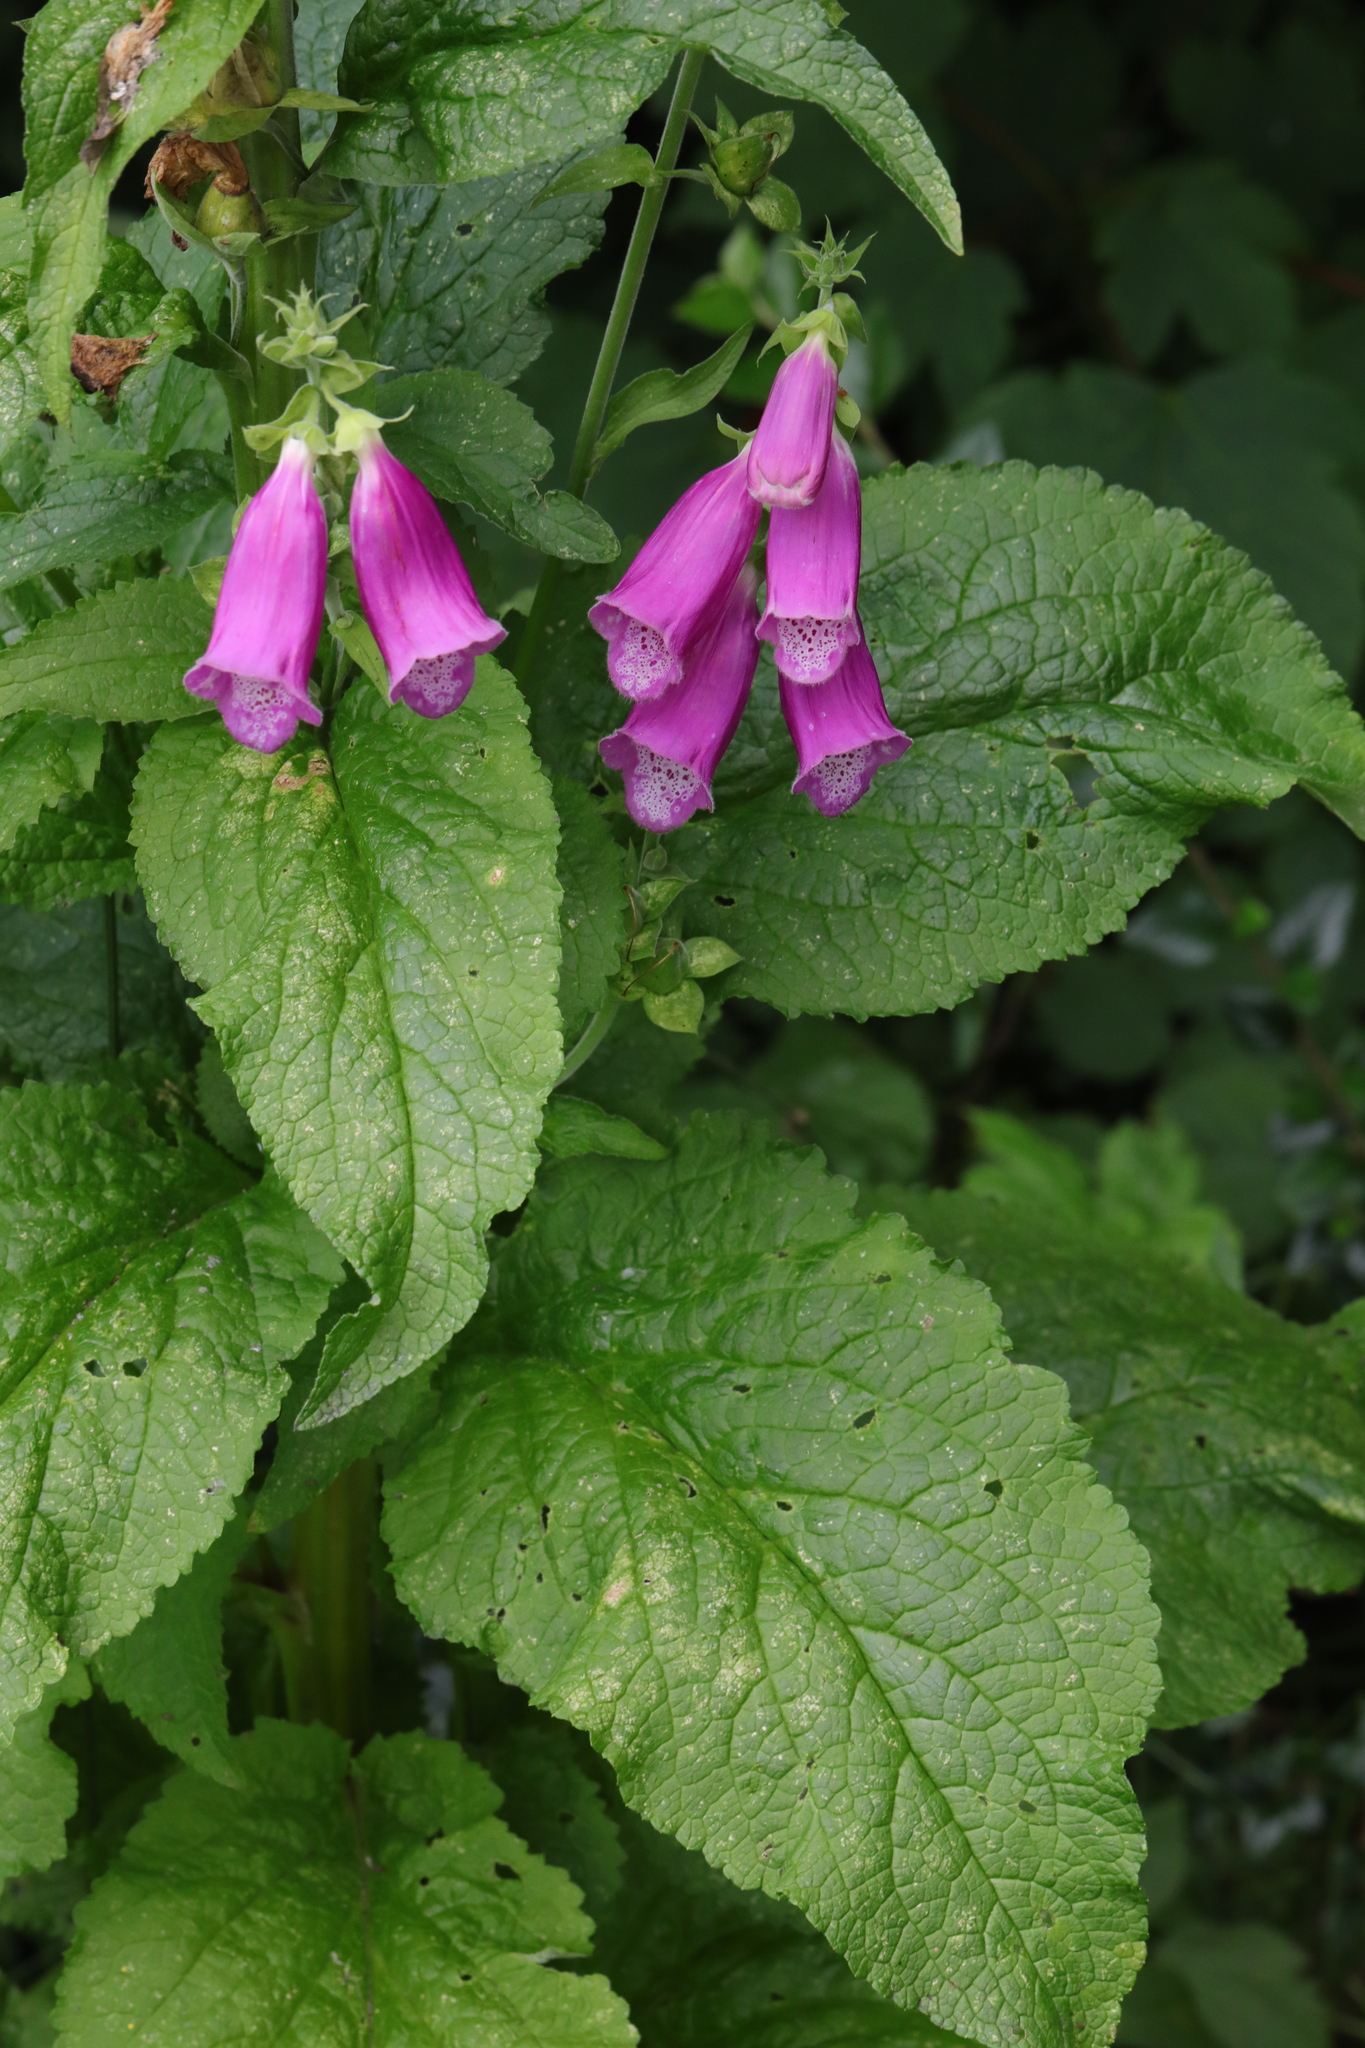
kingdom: Plantae
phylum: Tracheophyta
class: Magnoliopsida
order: Lamiales
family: Plantaginaceae
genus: Digitalis
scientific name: Digitalis purpurea
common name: Foxglove
